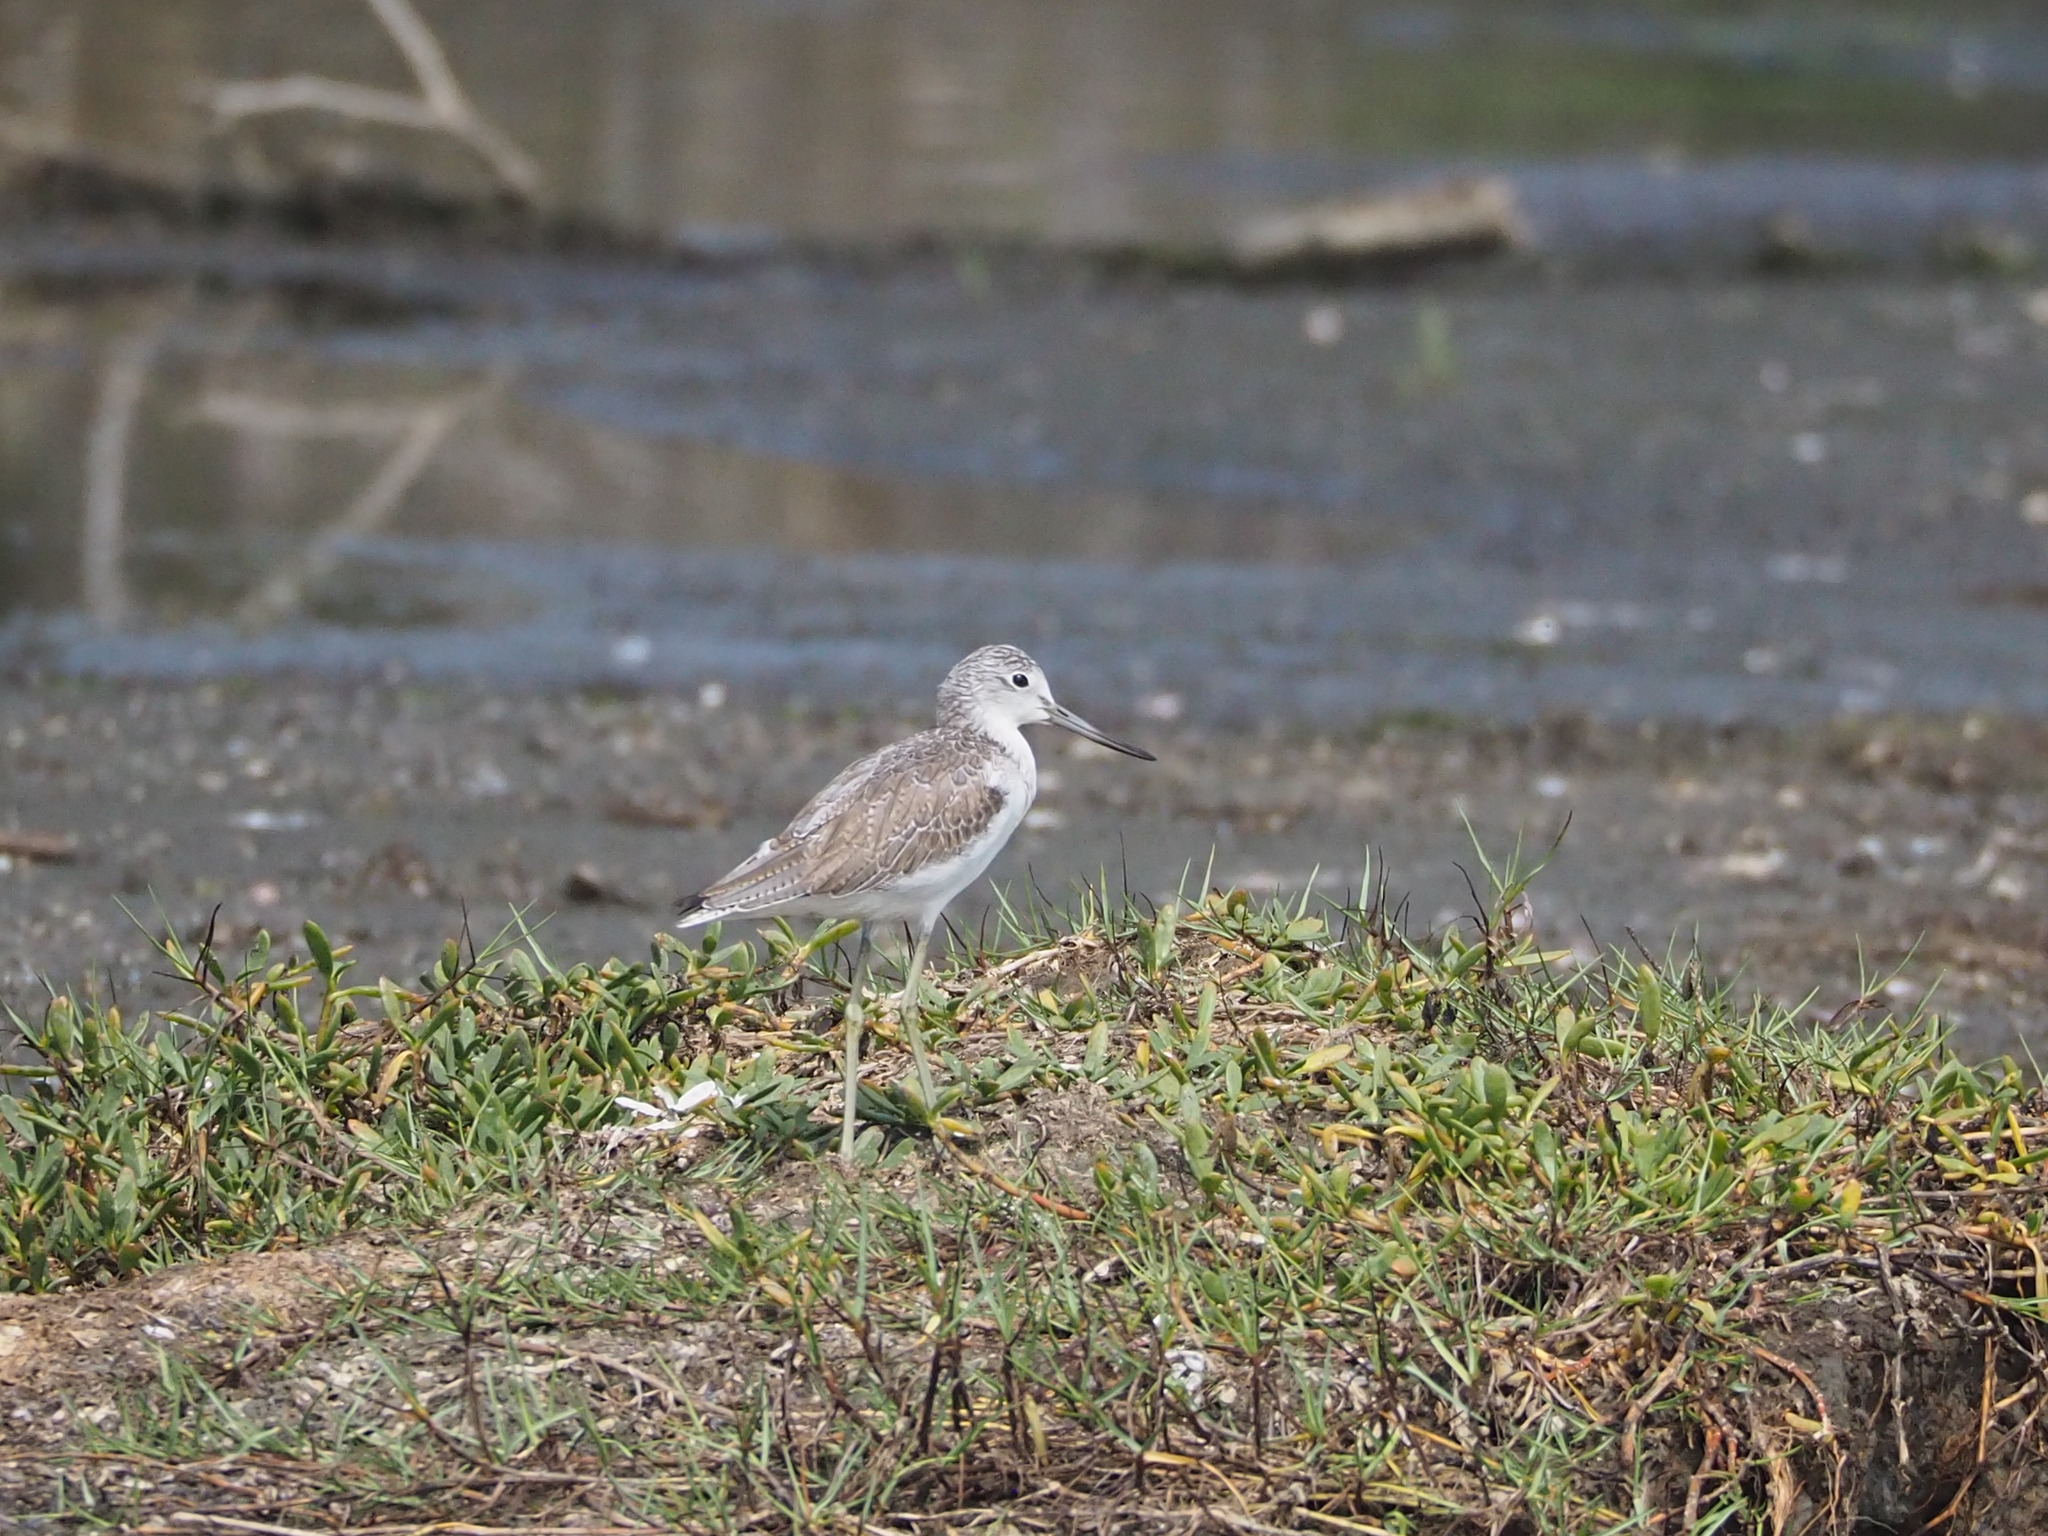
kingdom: Animalia
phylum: Chordata
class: Aves
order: Charadriiformes
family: Scolopacidae
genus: Tringa
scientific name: Tringa nebularia
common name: Common greenshank
